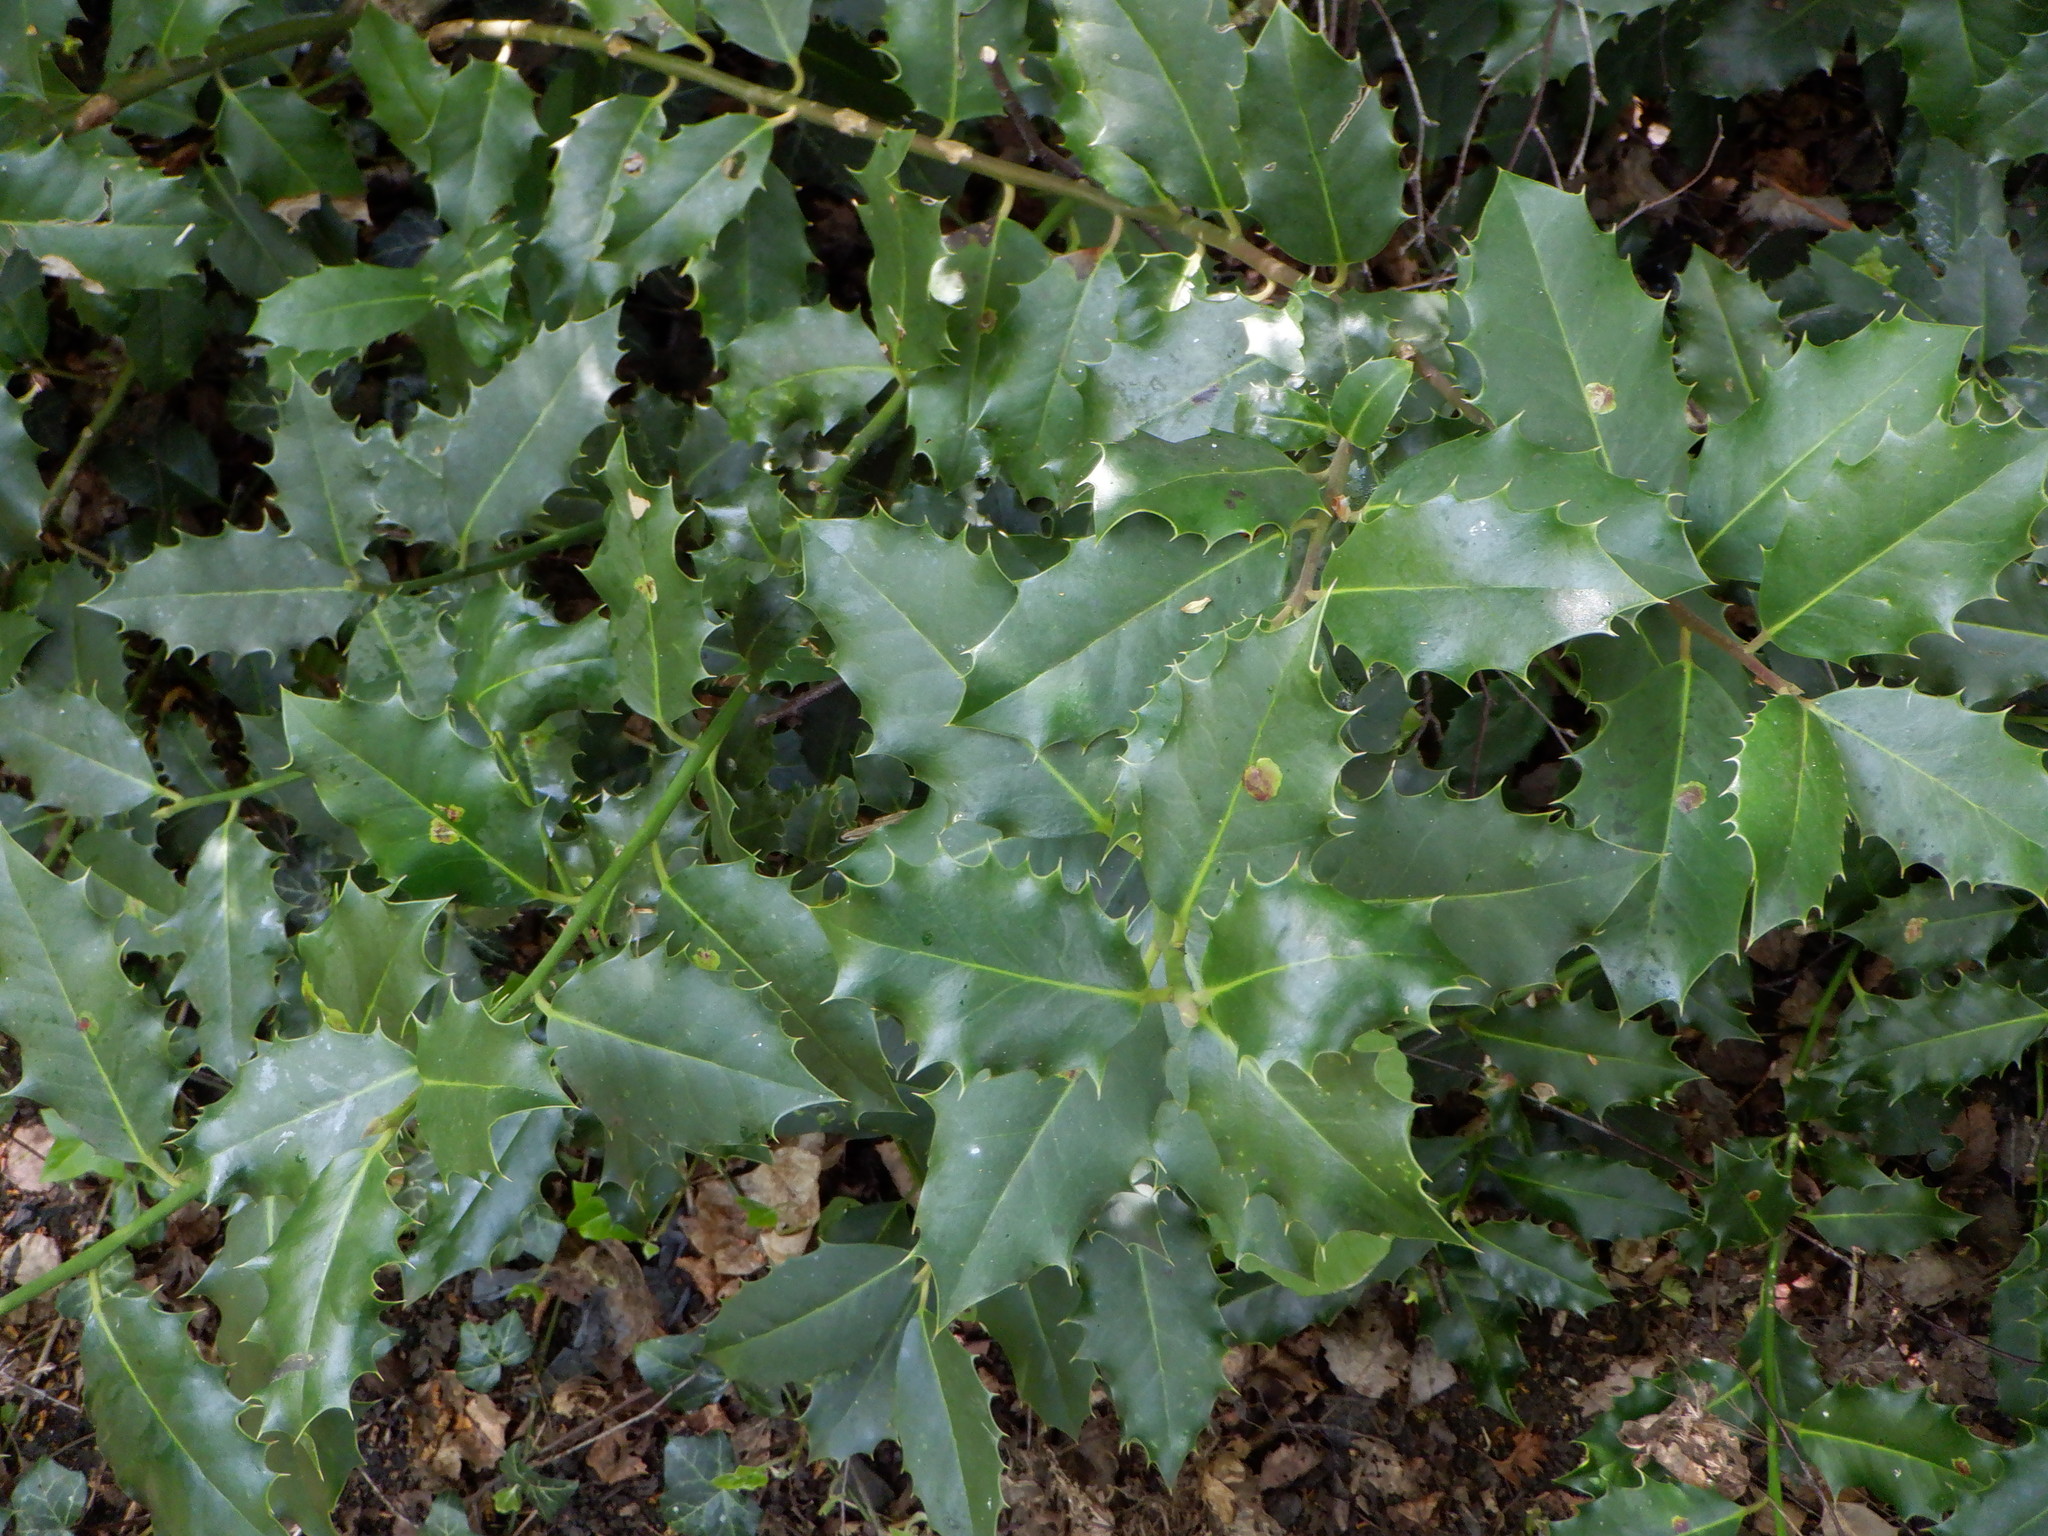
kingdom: Plantae
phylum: Tracheophyta
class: Magnoliopsida
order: Aquifoliales
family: Aquifoliaceae
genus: Ilex
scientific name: Ilex aquifolium
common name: English holly
